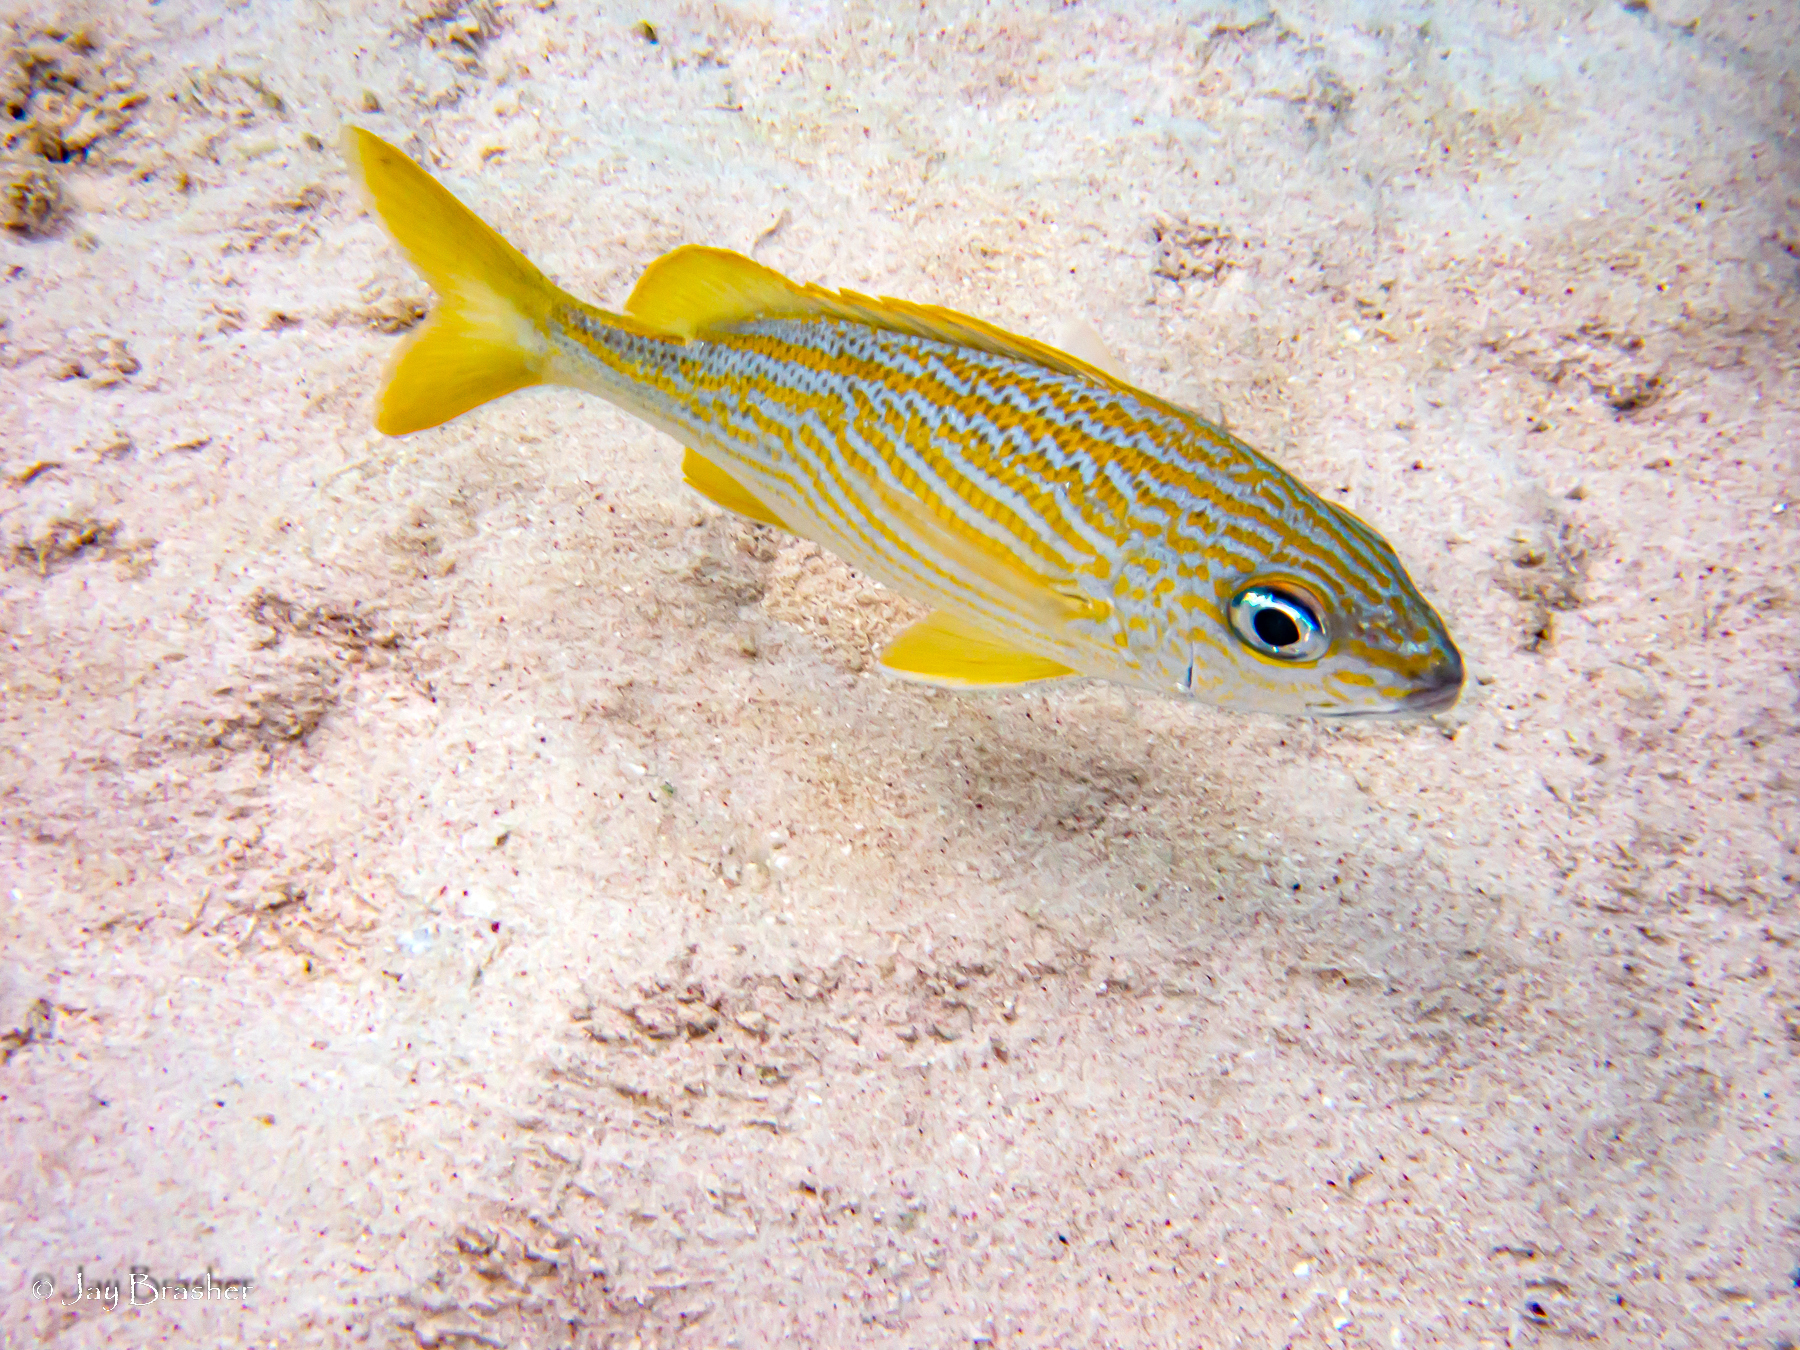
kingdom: Animalia
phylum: Chordata
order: Perciformes
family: Haemulidae
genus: Haemulon
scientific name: Haemulon flavolineatum
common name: French grunt
